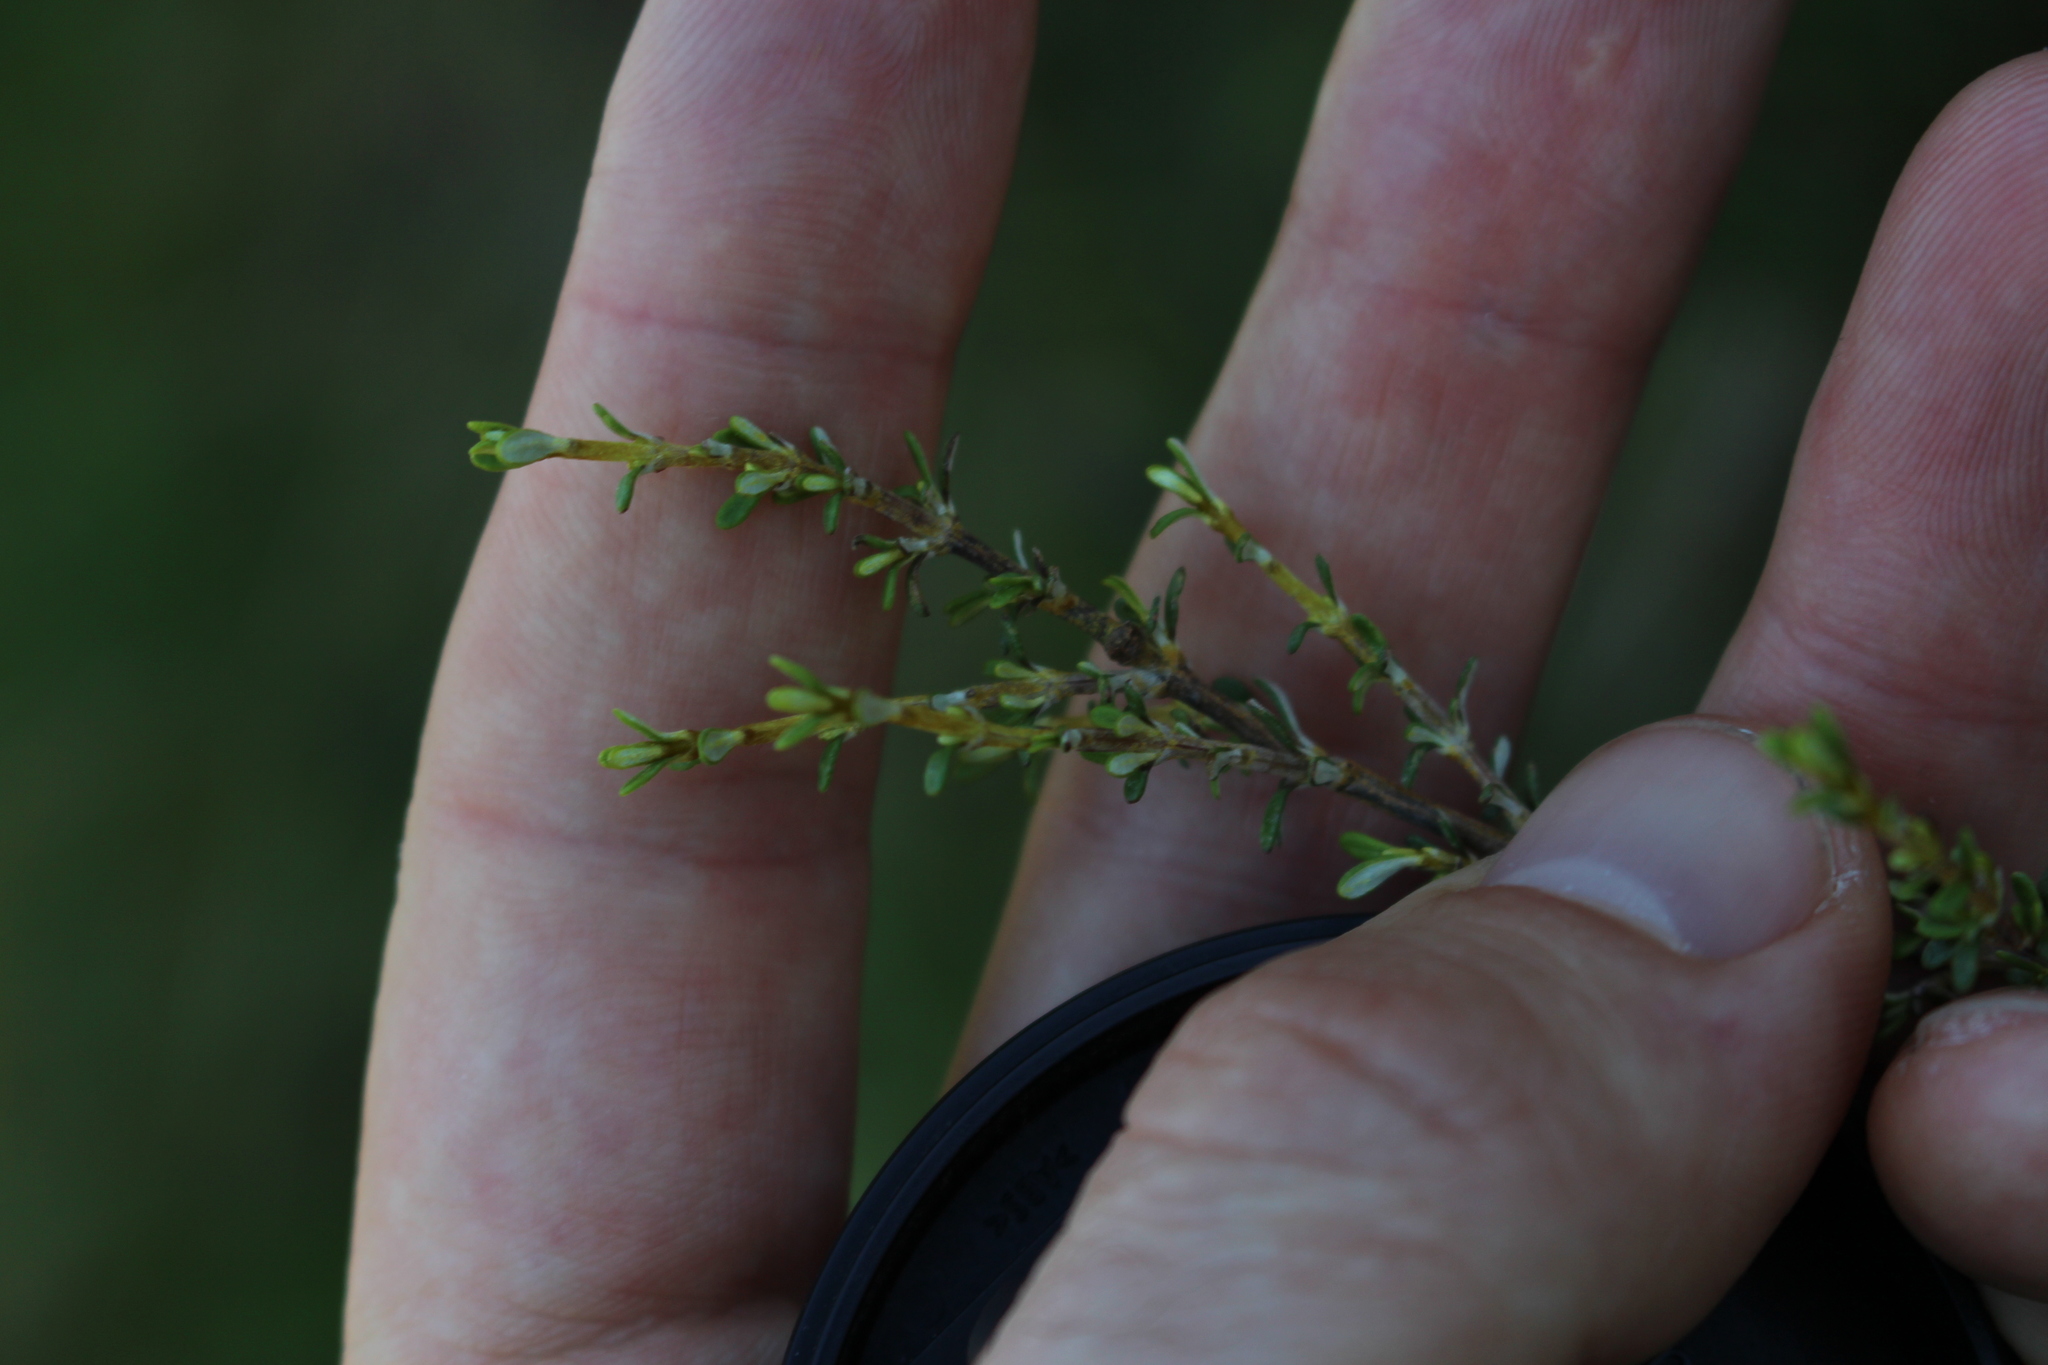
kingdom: Plantae
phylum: Tracheophyta
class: Magnoliopsida
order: Asterales
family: Asteraceae
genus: Olearia
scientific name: Olearia solandri
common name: Coastal daisybush
